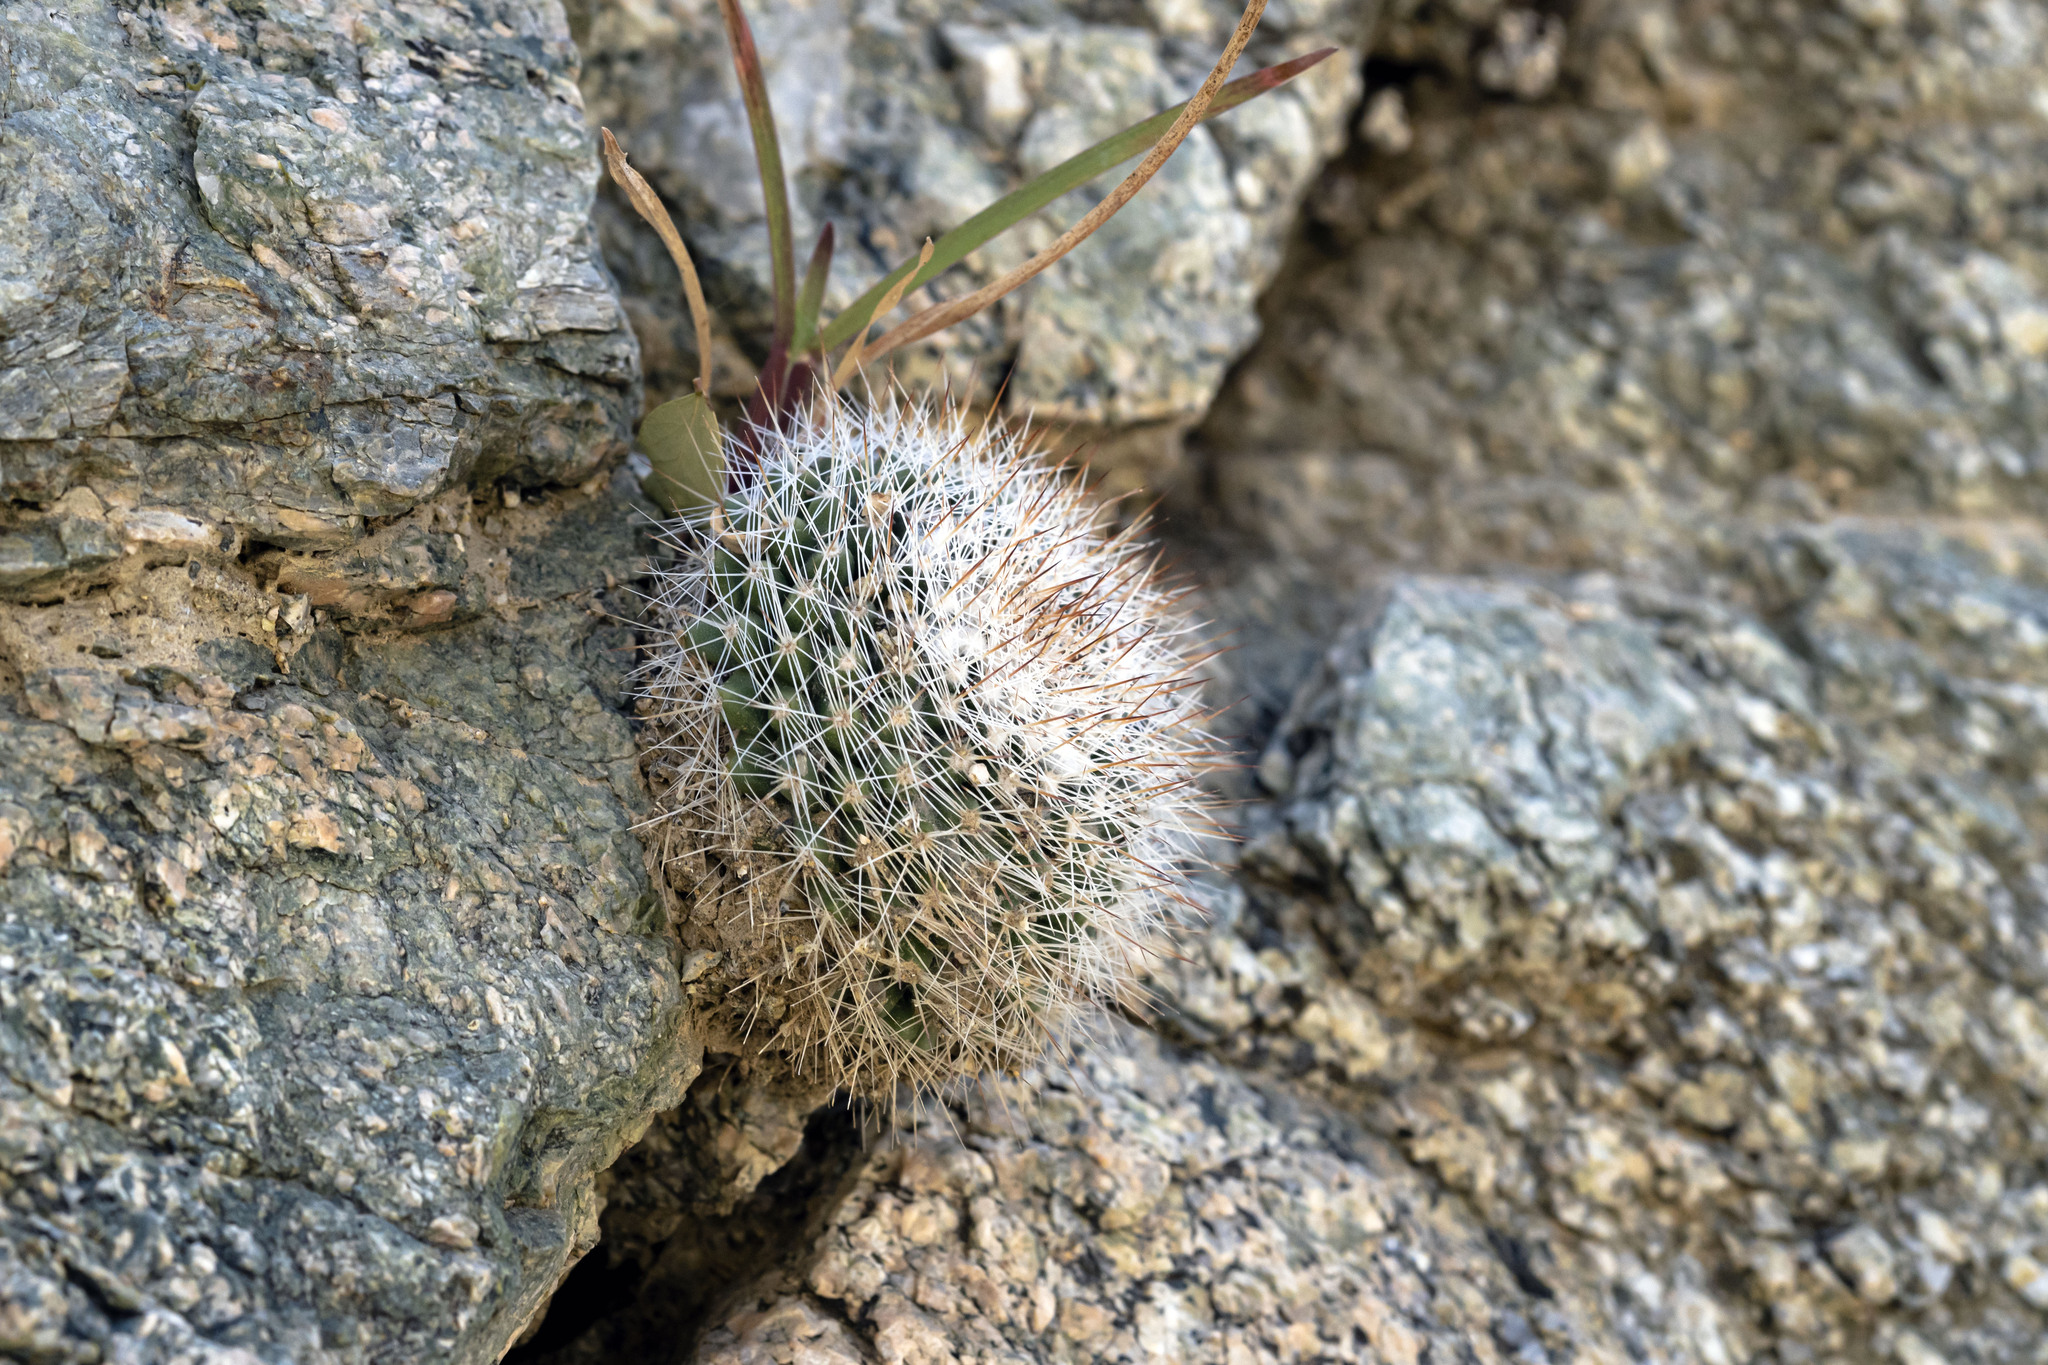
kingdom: Plantae
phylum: Tracheophyta
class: Magnoliopsida
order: Caryophyllales
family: Cactaceae
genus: Mammillaria
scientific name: Mammillaria evermanniana
